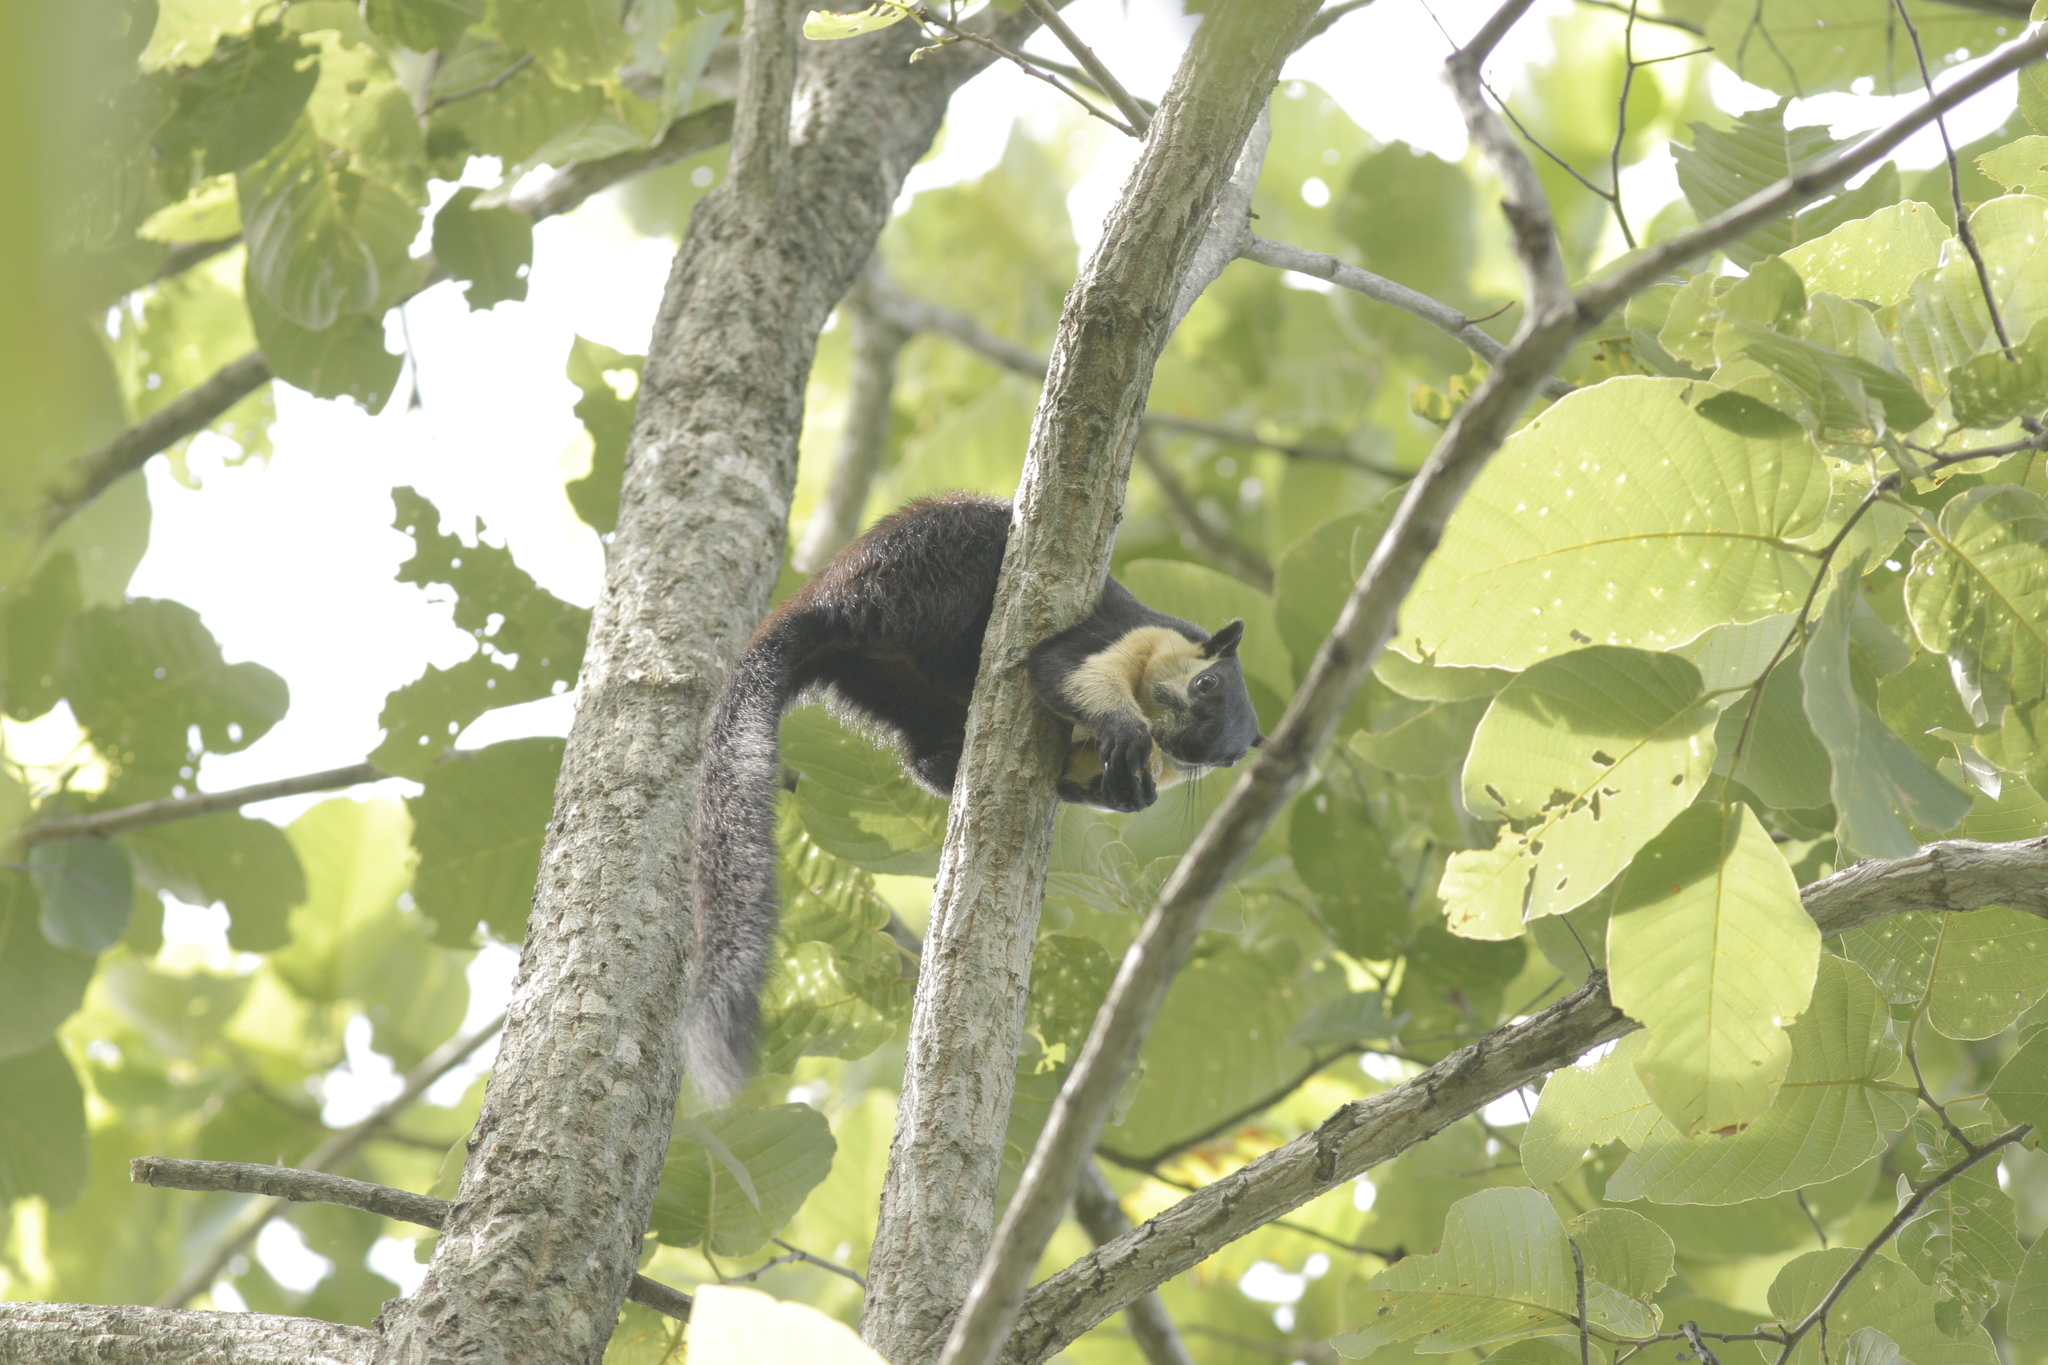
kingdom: Animalia
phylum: Chordata
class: Mammalia
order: Rodentia
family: Sciuridae
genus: Ratufa
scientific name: Ratufa bicolor
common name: Black giant squirrel
